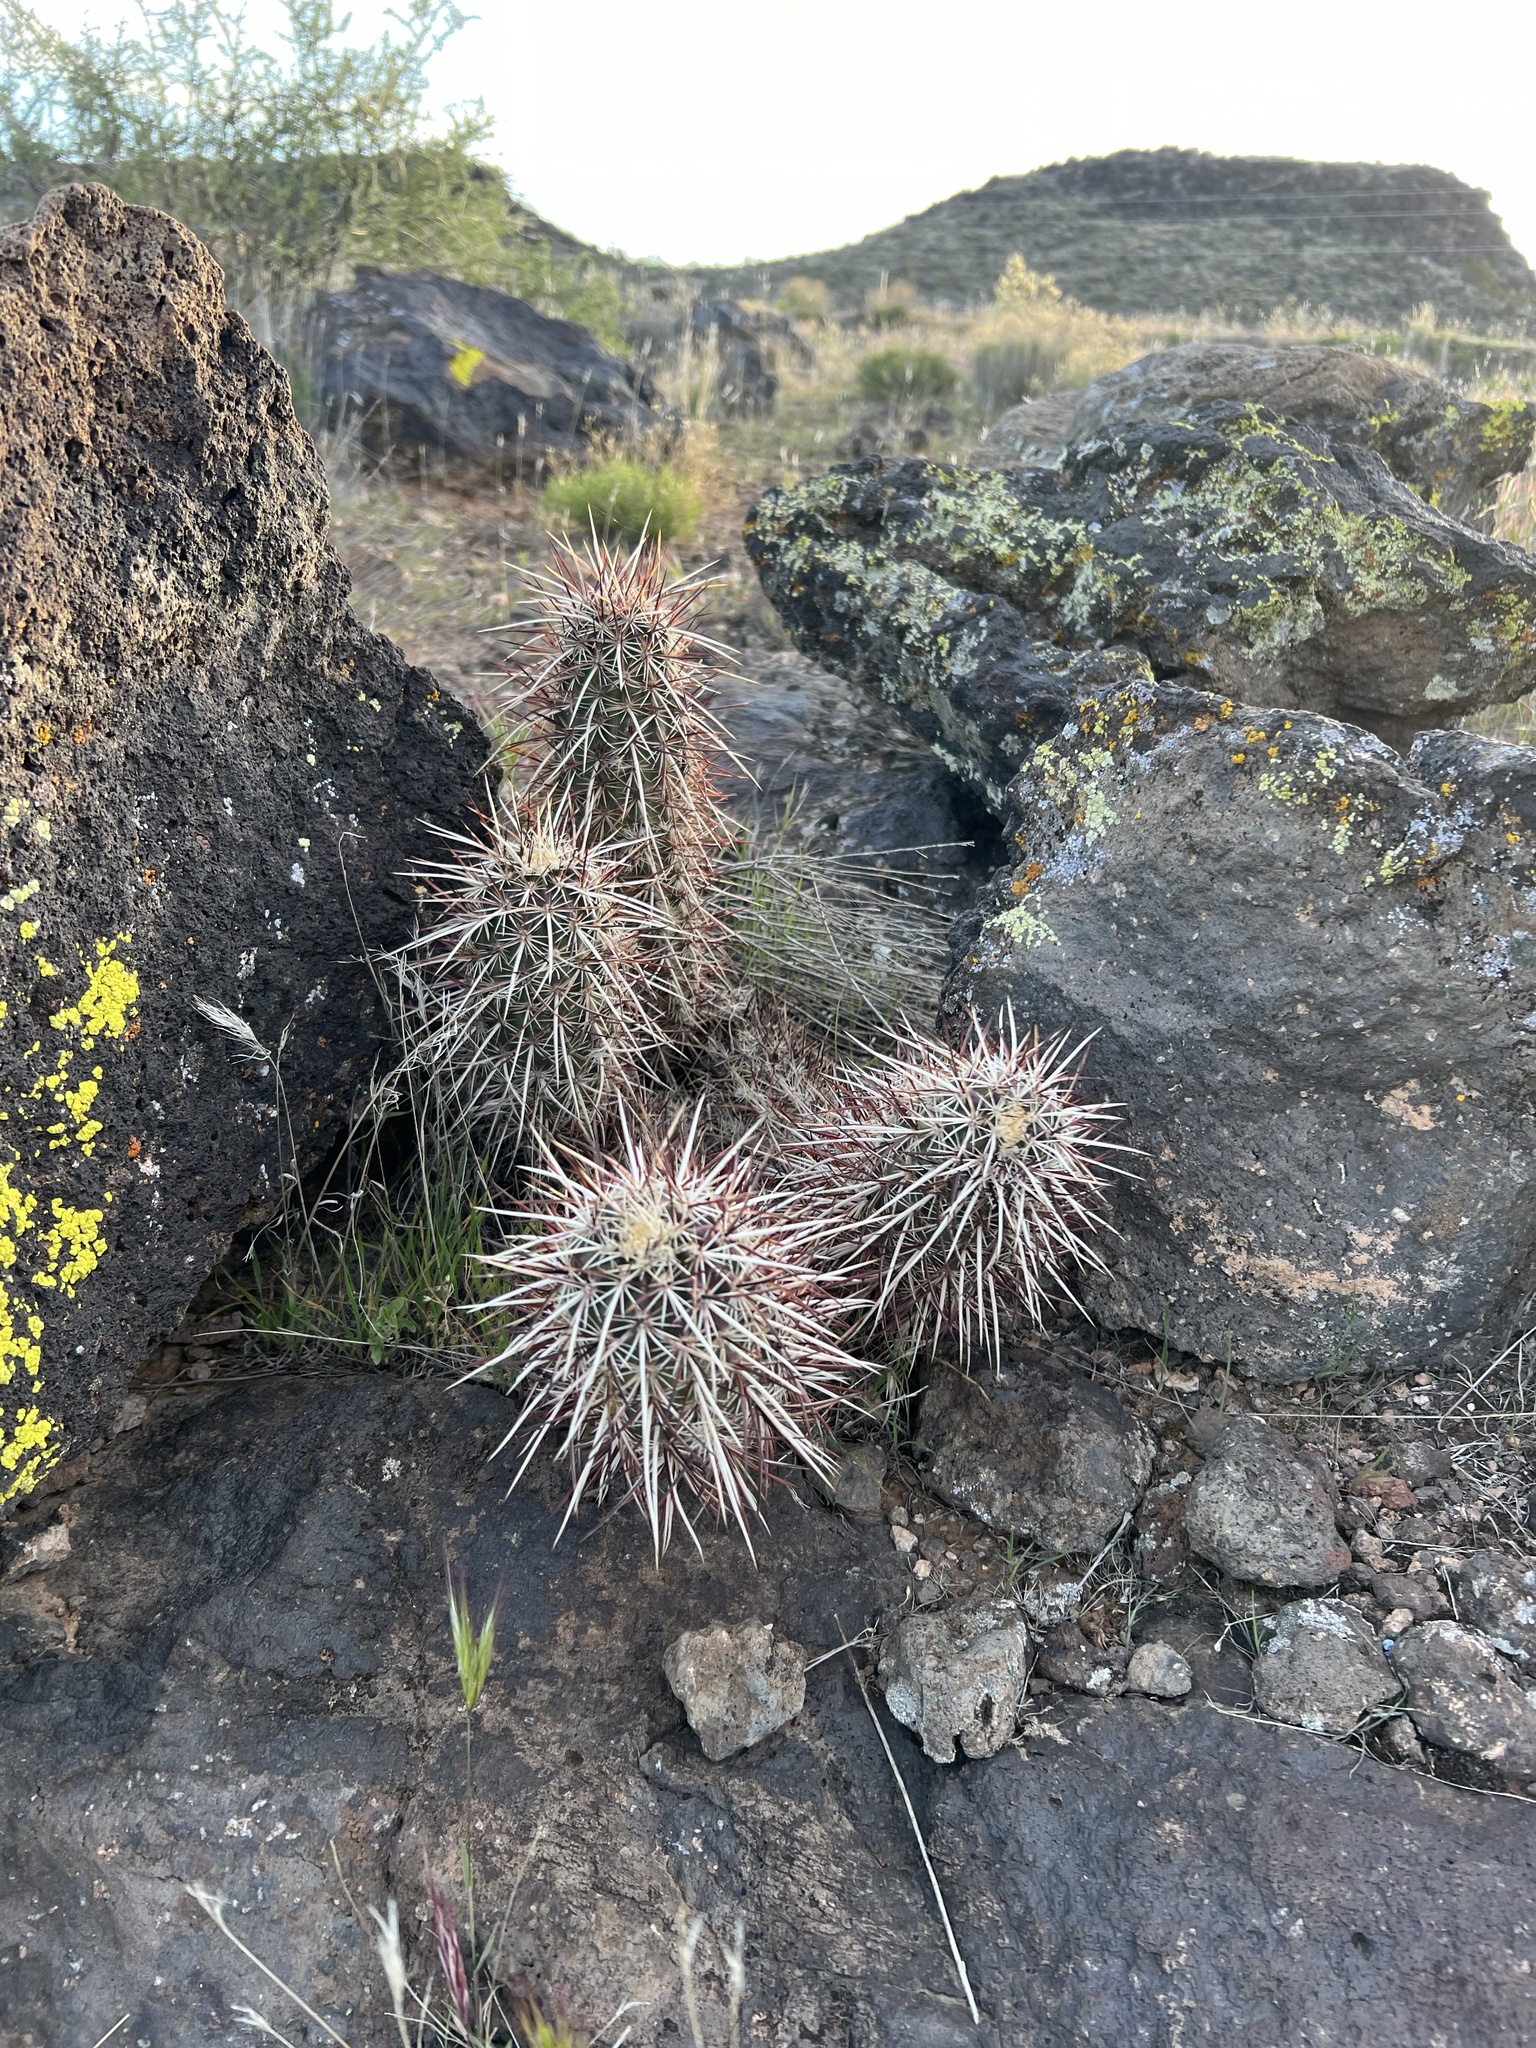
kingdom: Plantae
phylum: Tracheophyta
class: Magnoliopsida
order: Caryophyllales
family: Cactaceae
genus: Echinocereus
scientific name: Echinocereus relictus
